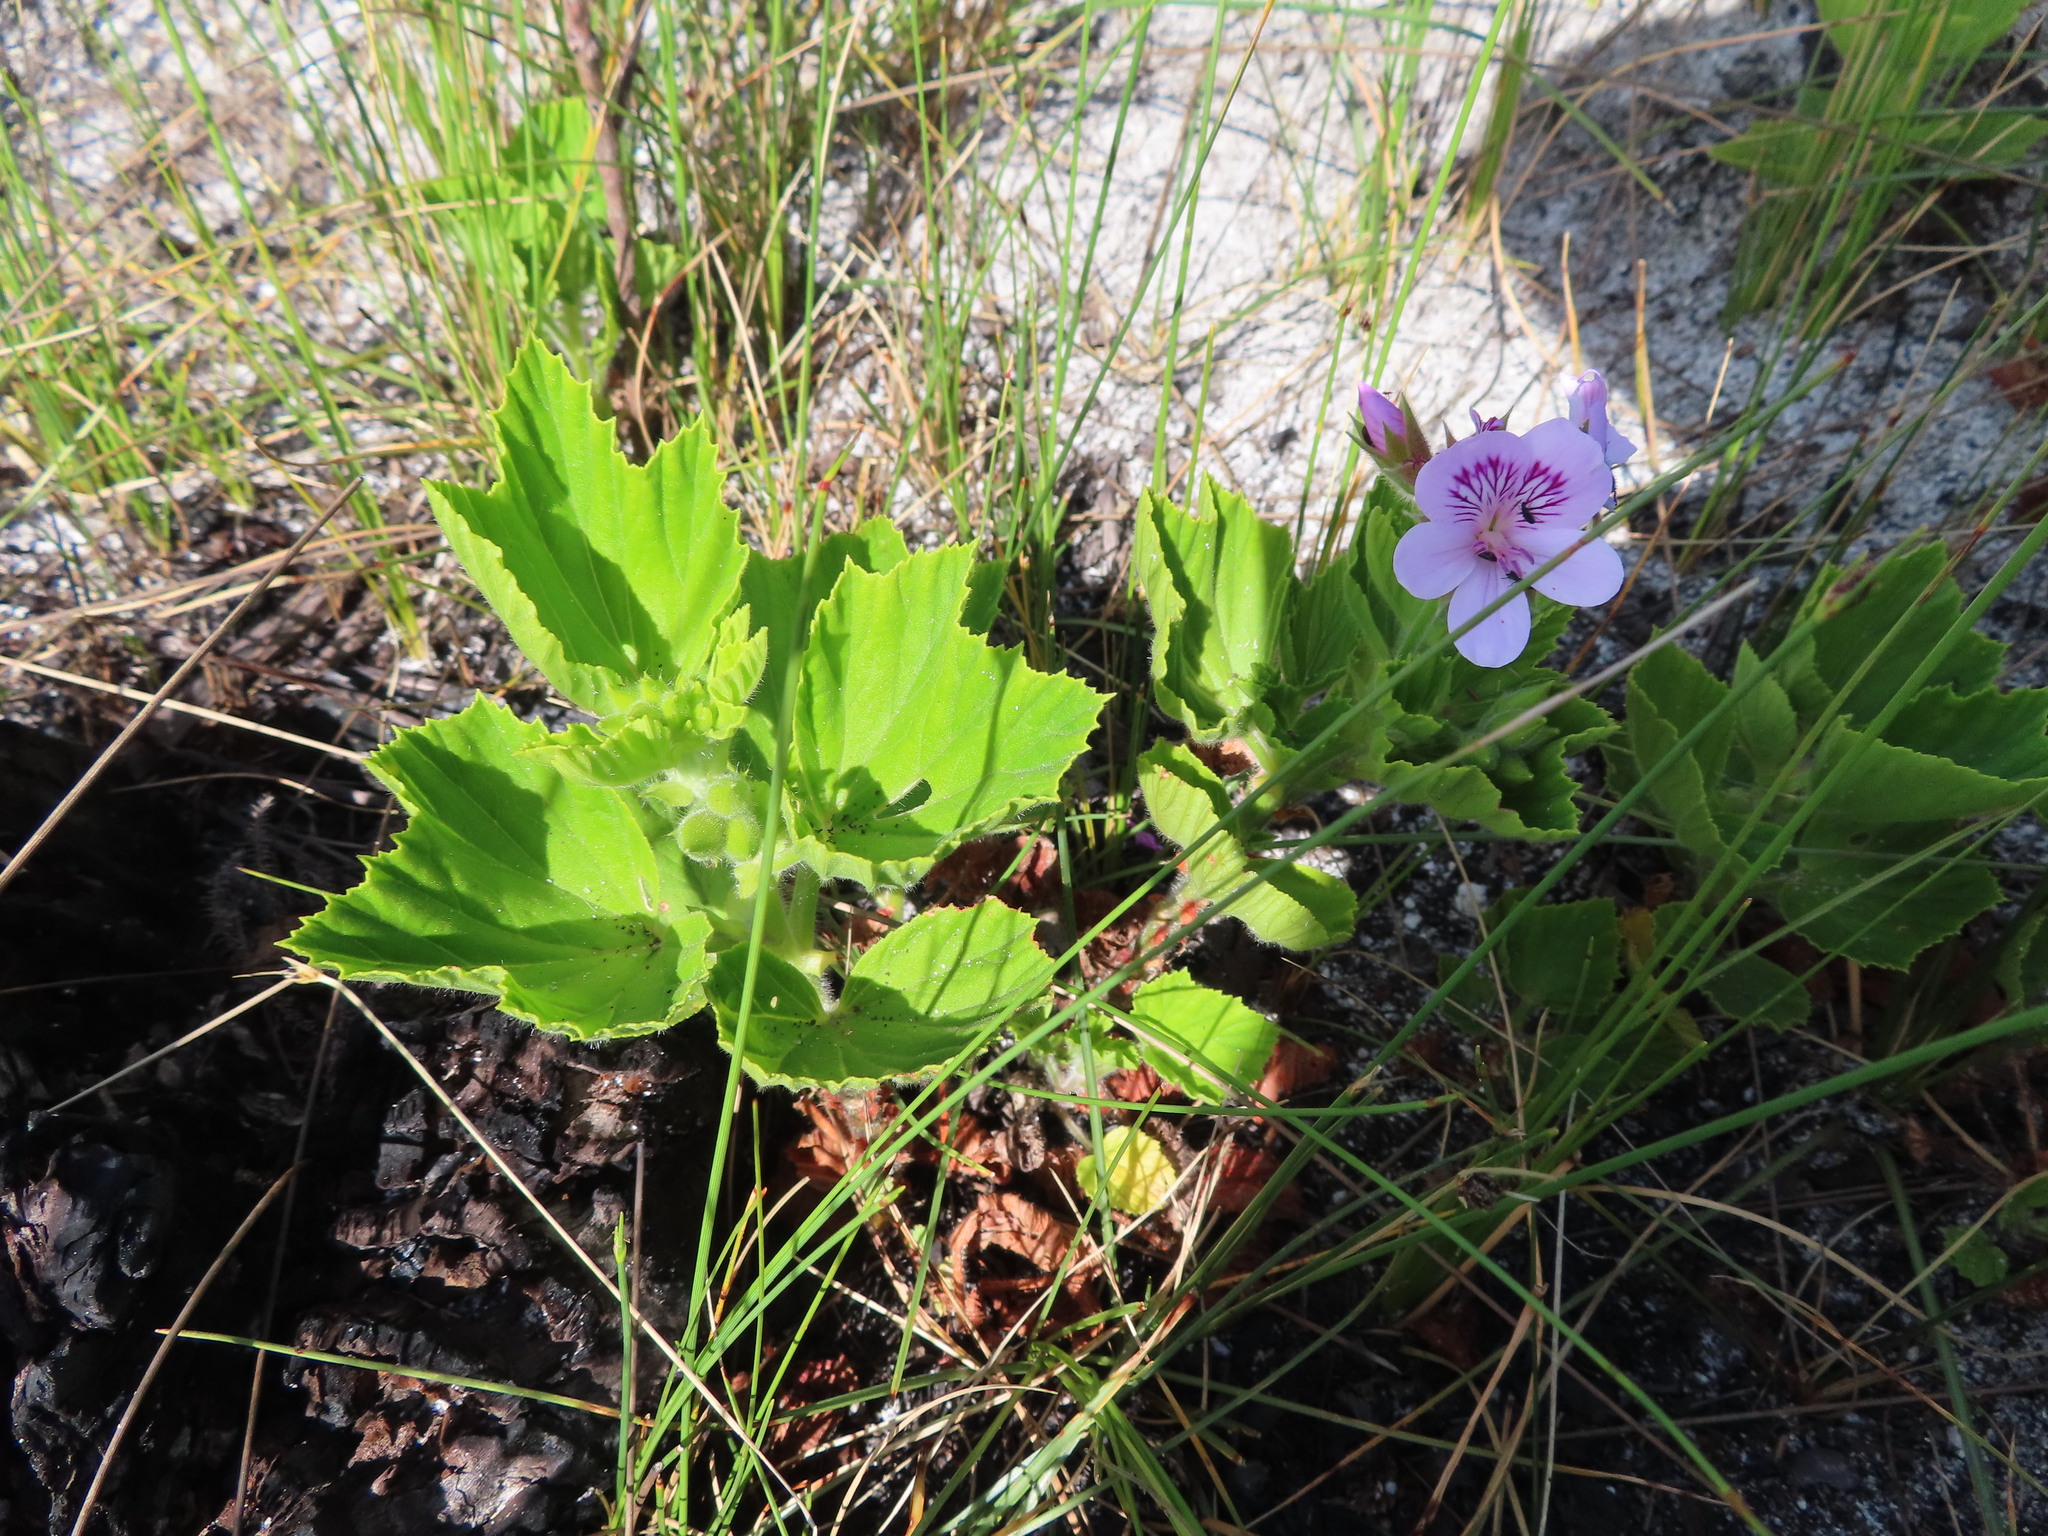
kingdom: Plantae
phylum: Tracheophyta
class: Magnoliopsida
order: Geraniales
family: Geraniaceae
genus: Pelargonium
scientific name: Pelargonium cucullatum
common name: Tree pelargonium
